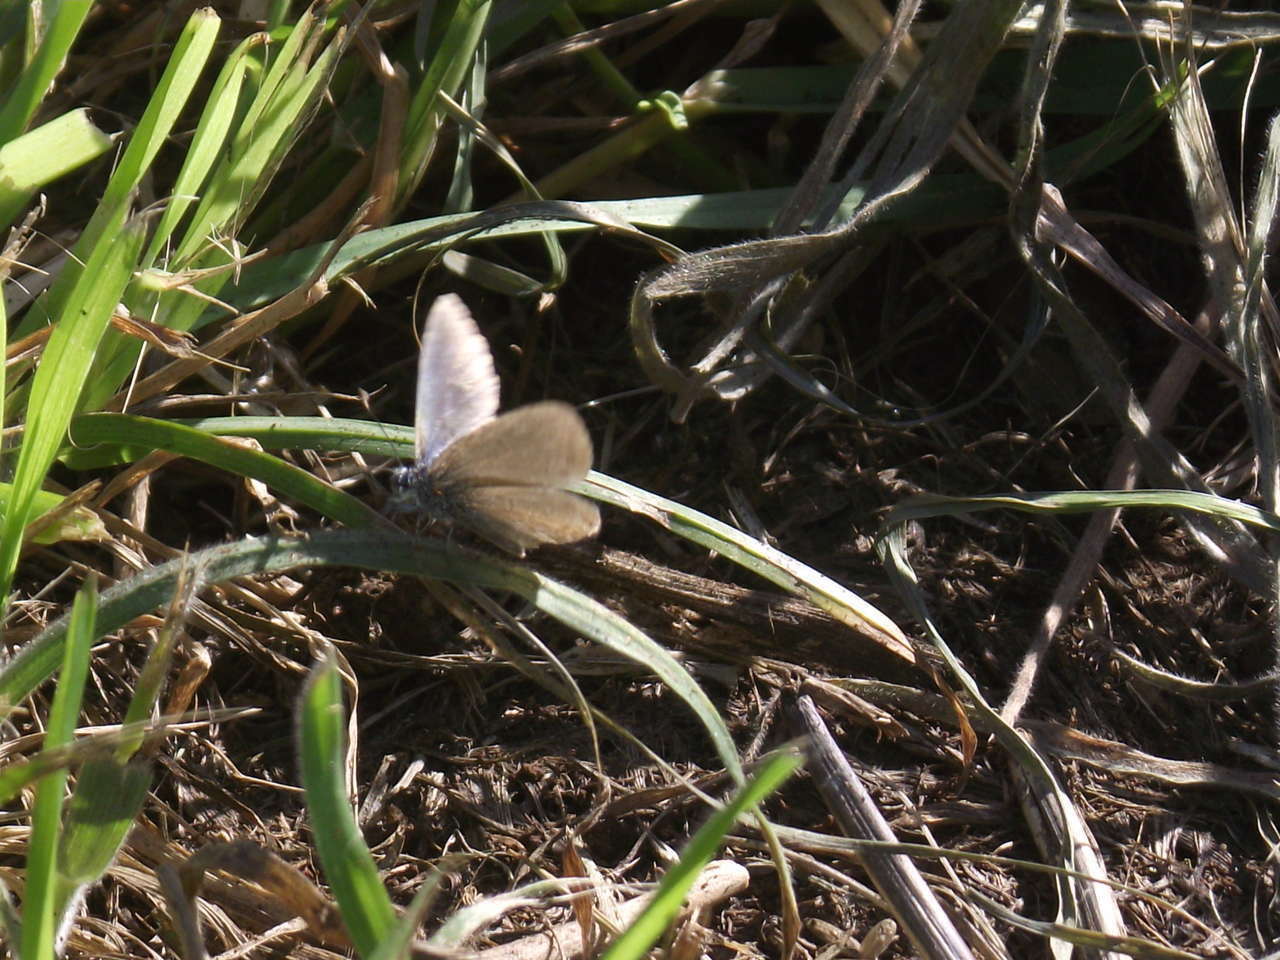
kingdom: Animalia
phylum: Arthropoda
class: Insecta
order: Lepidoptera
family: Lycaenidae
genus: Zizina
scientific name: Zizina labradus
